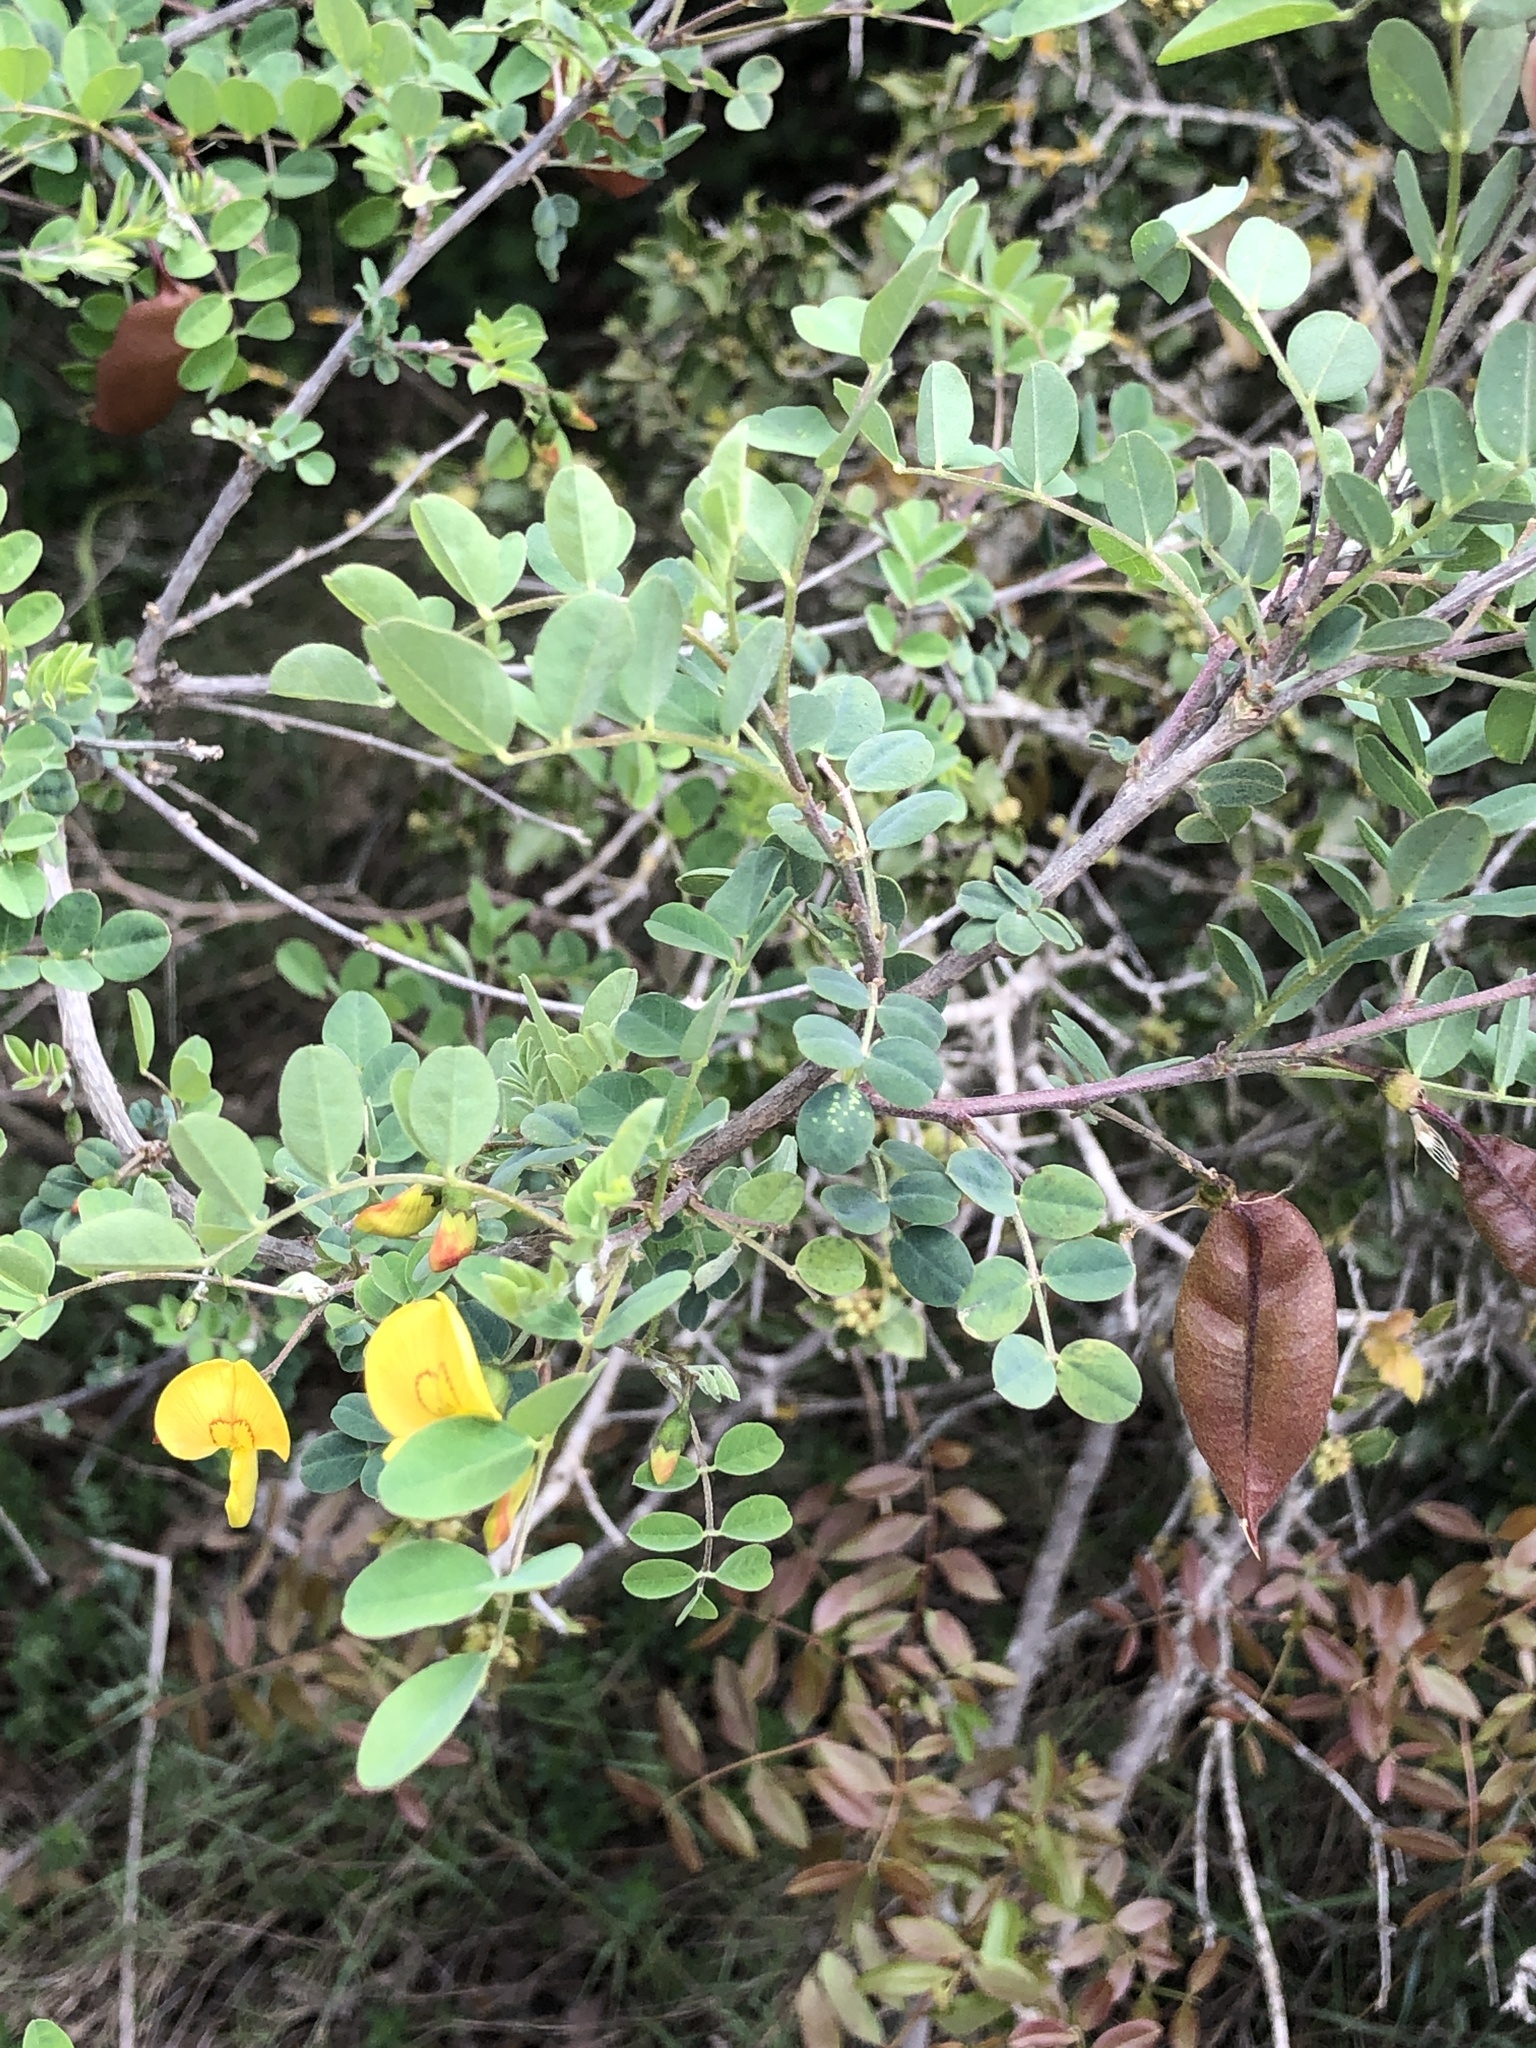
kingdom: Plantae
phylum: Tracheophyta
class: Magnoliopsida
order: Fabales
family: Fabaceae
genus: Colutea
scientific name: Colutea arborescens
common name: Bladder-senna
